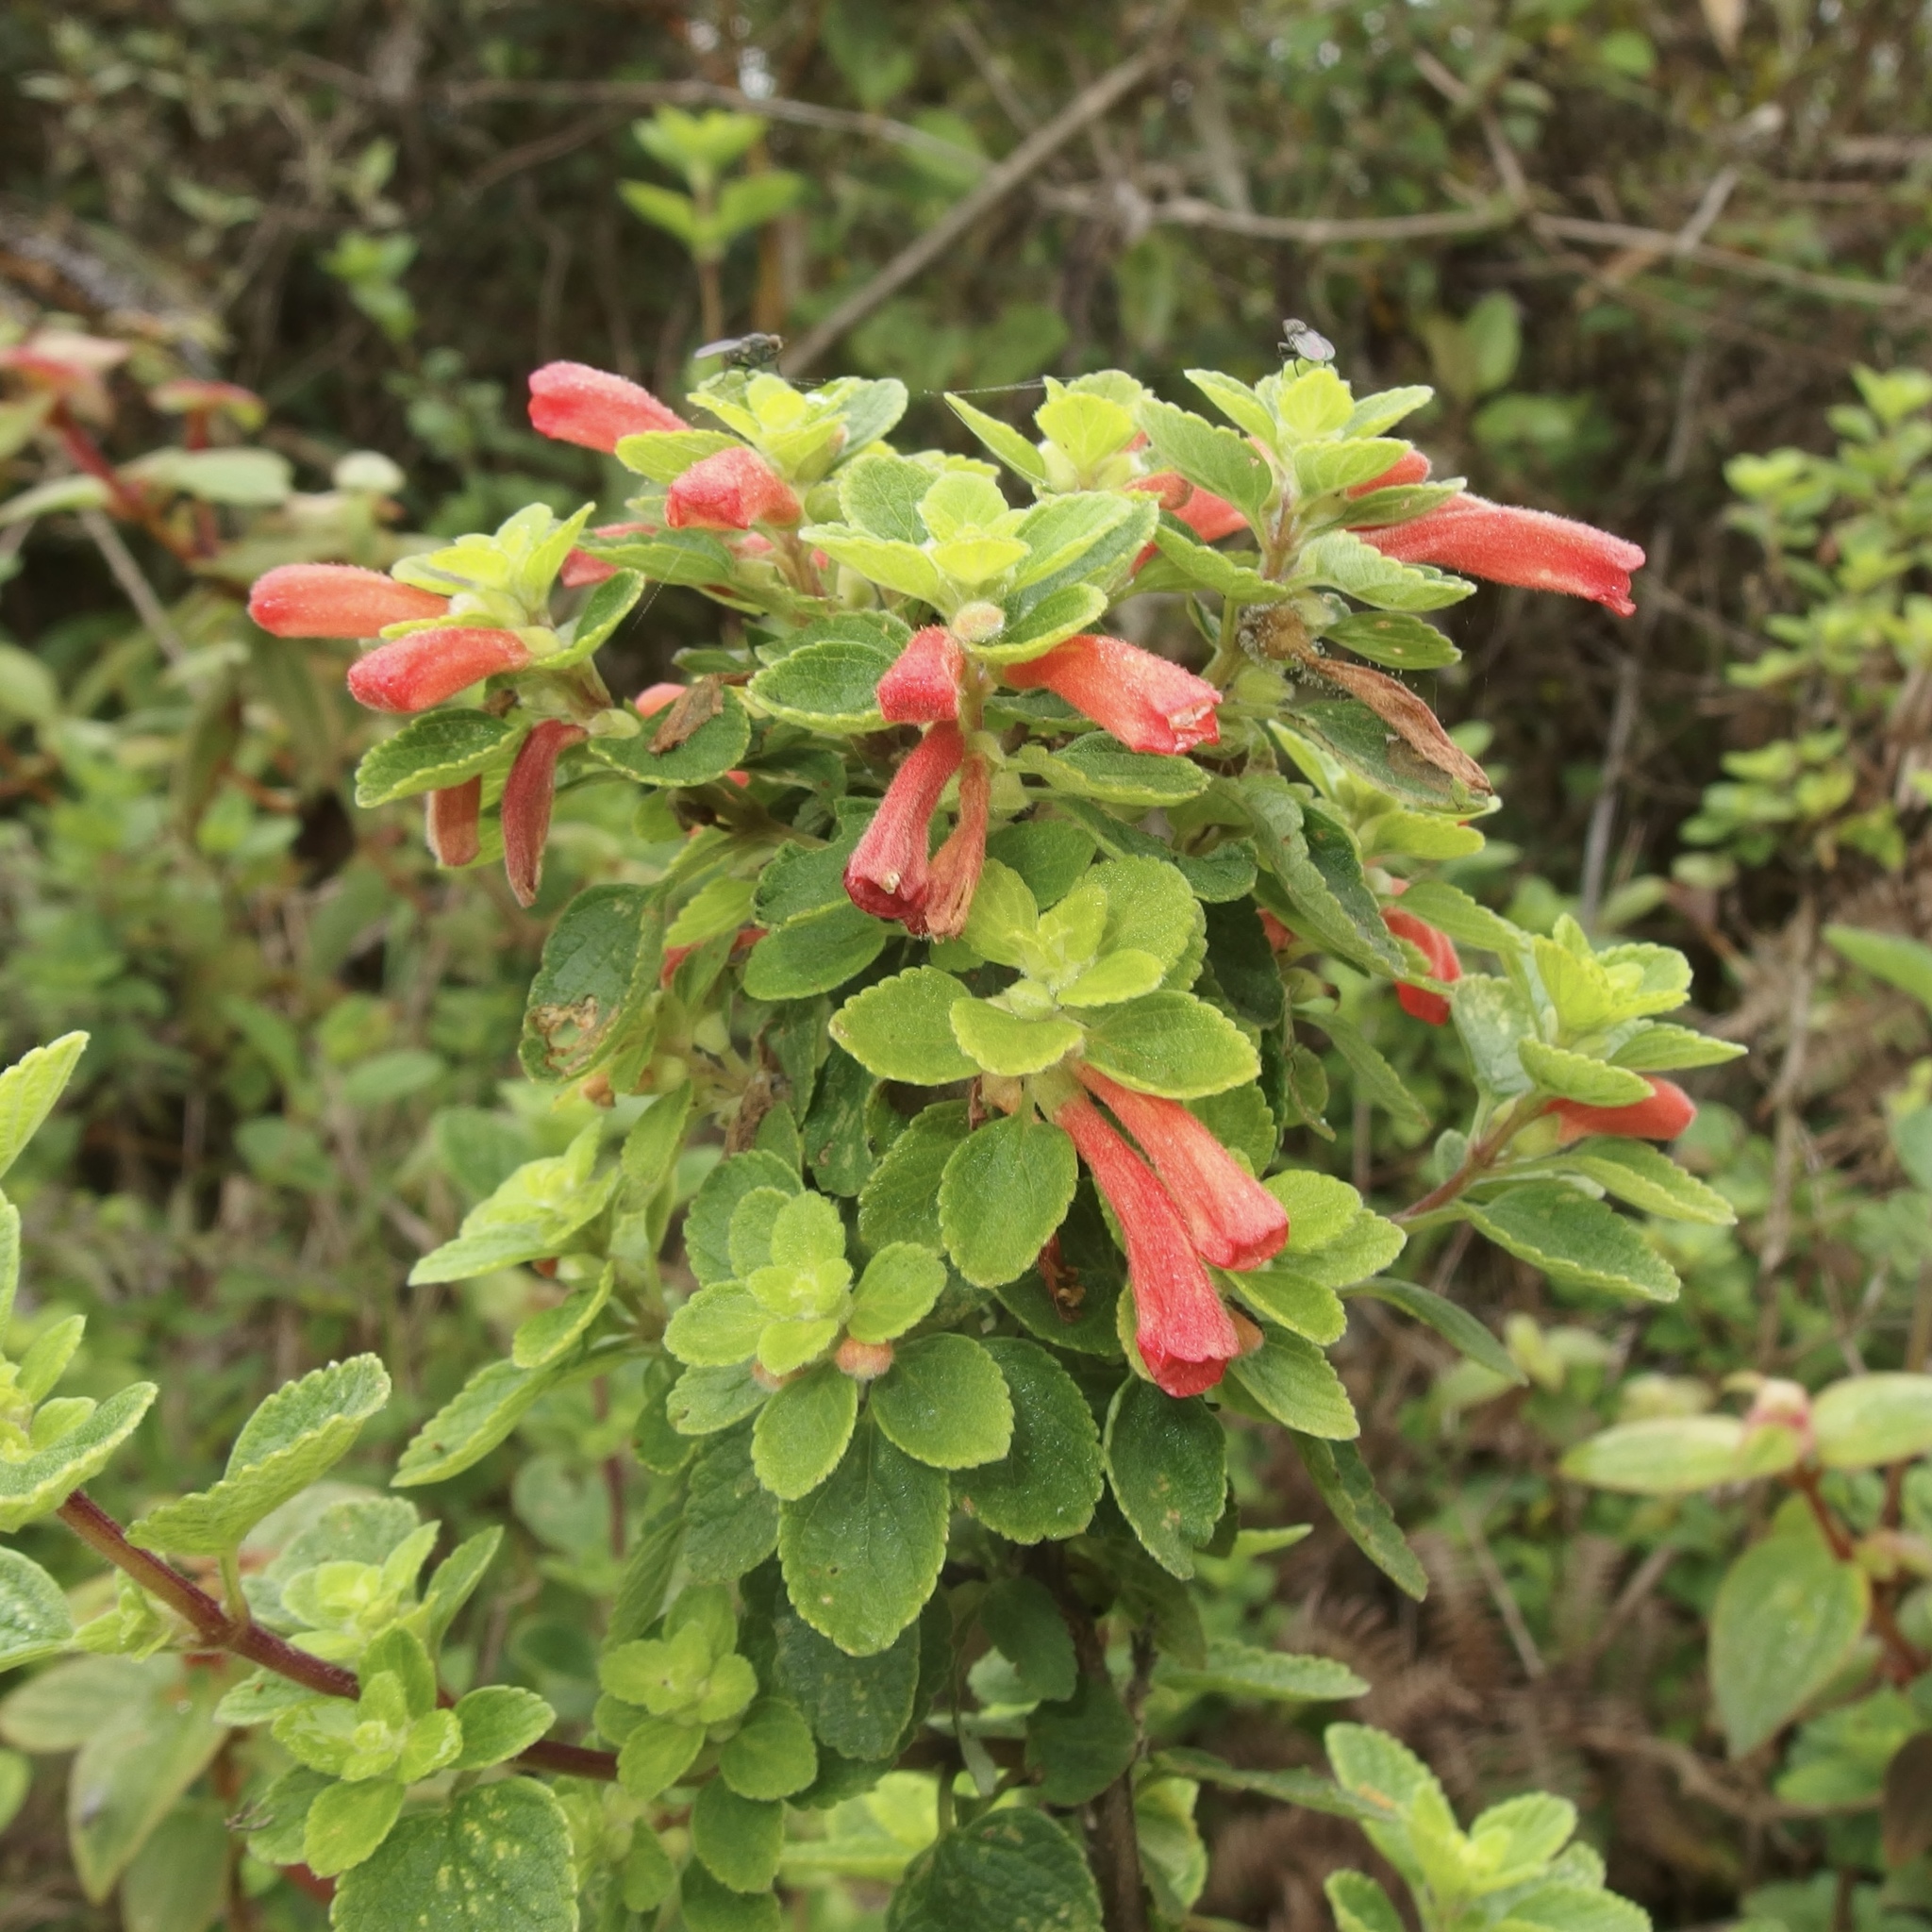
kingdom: Plantae
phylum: Tracheophyta
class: Magnoliopsida
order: Lamiales
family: Lamiaceae
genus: Scutellaria
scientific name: Scutellaria volubilis
